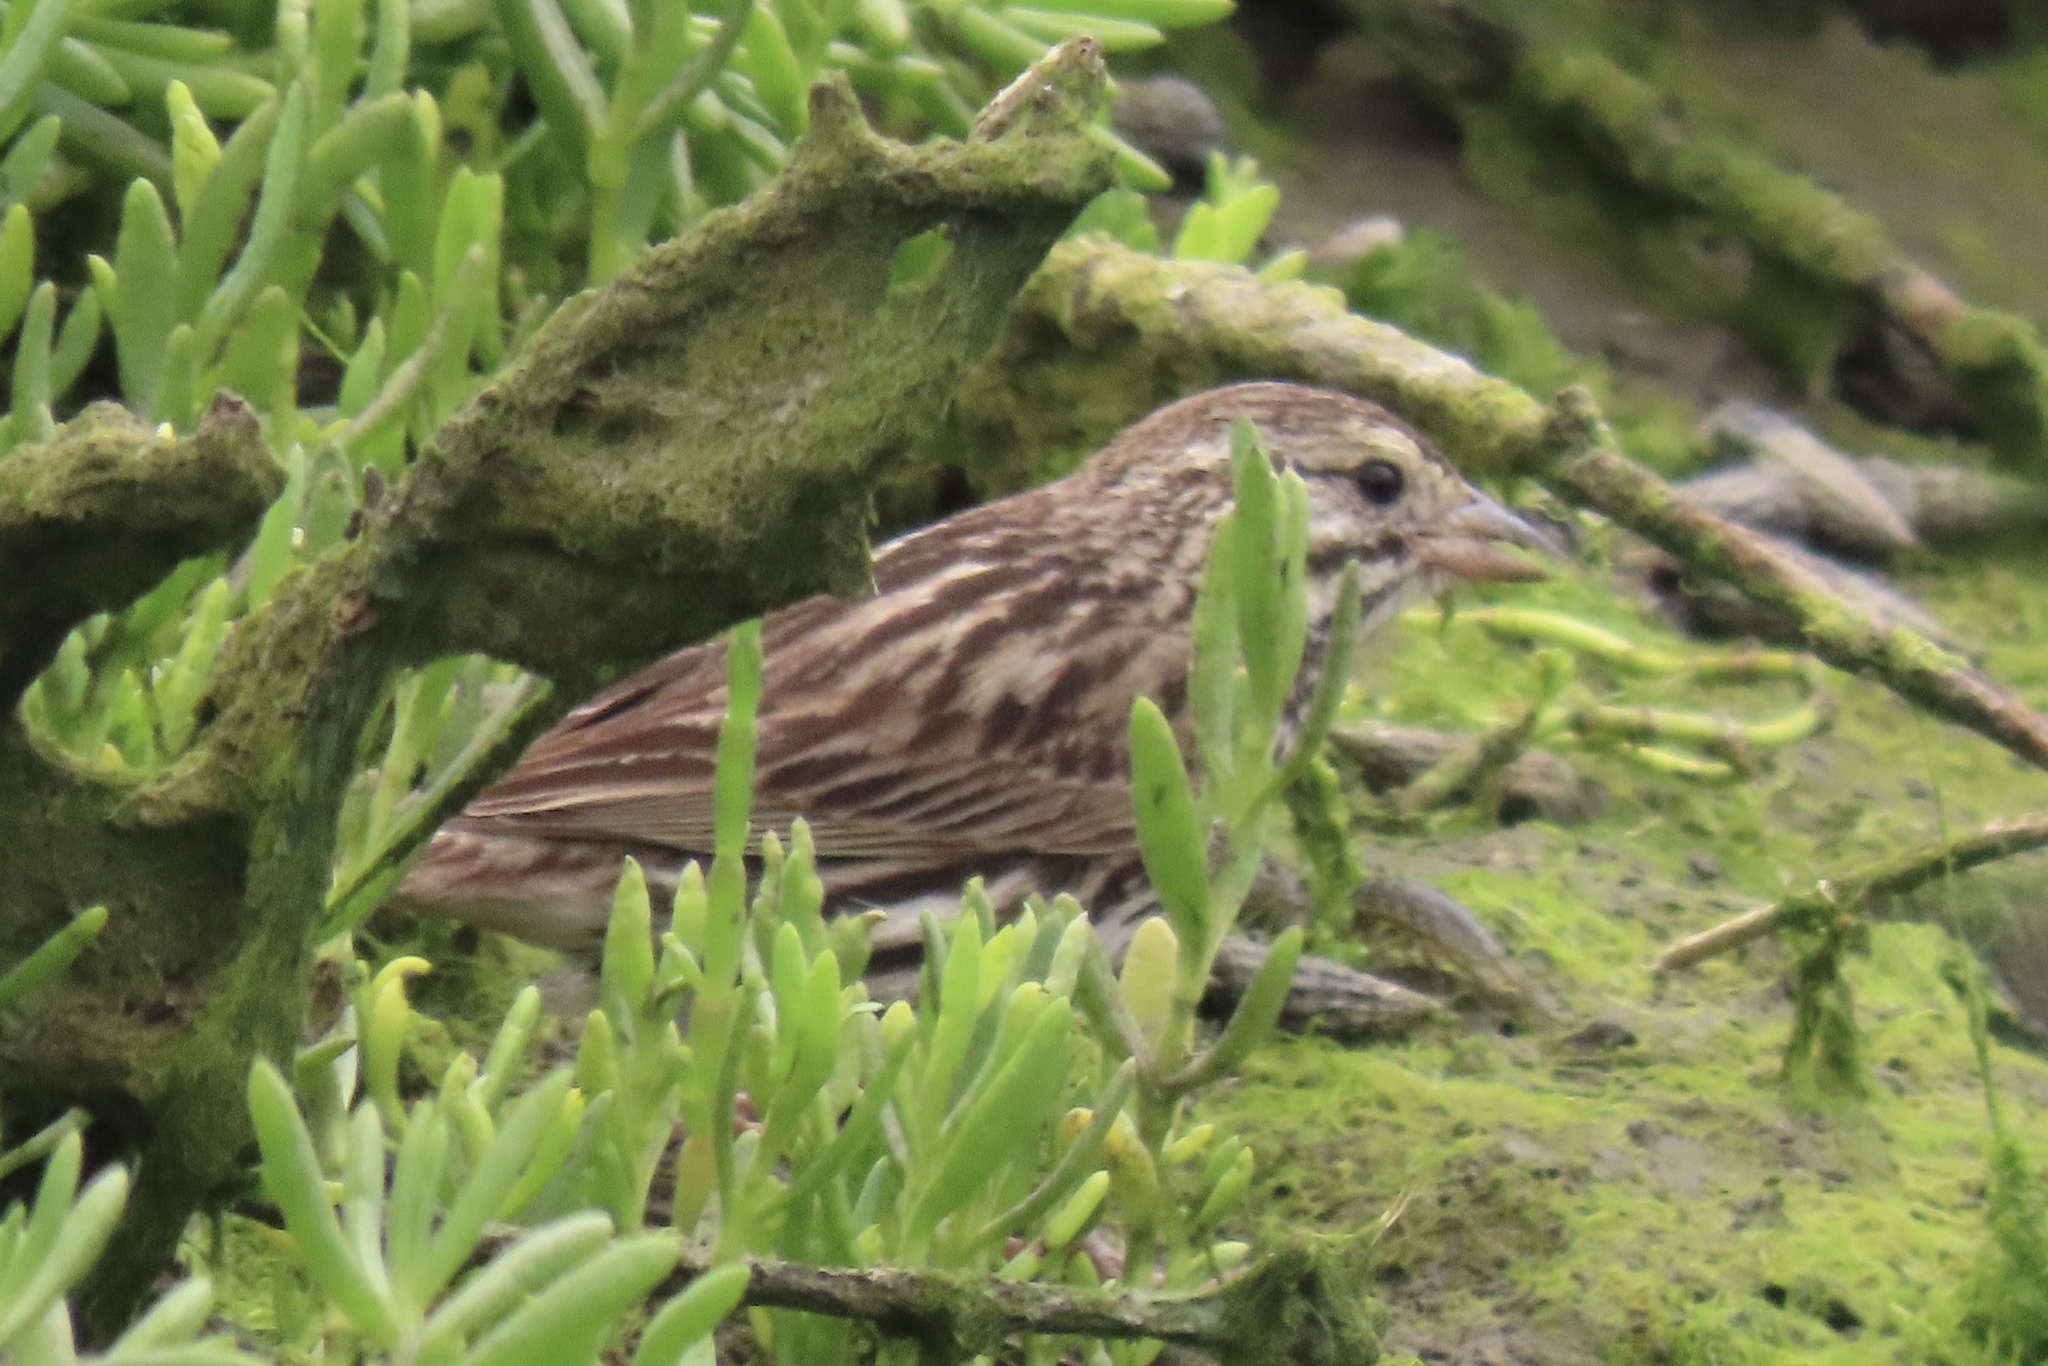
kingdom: Animalia
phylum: Chordata
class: Aves
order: Passeriformes
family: Passerellidae
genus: Passerculus
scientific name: Passerculus sandwichensis
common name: Savannah sparrow
